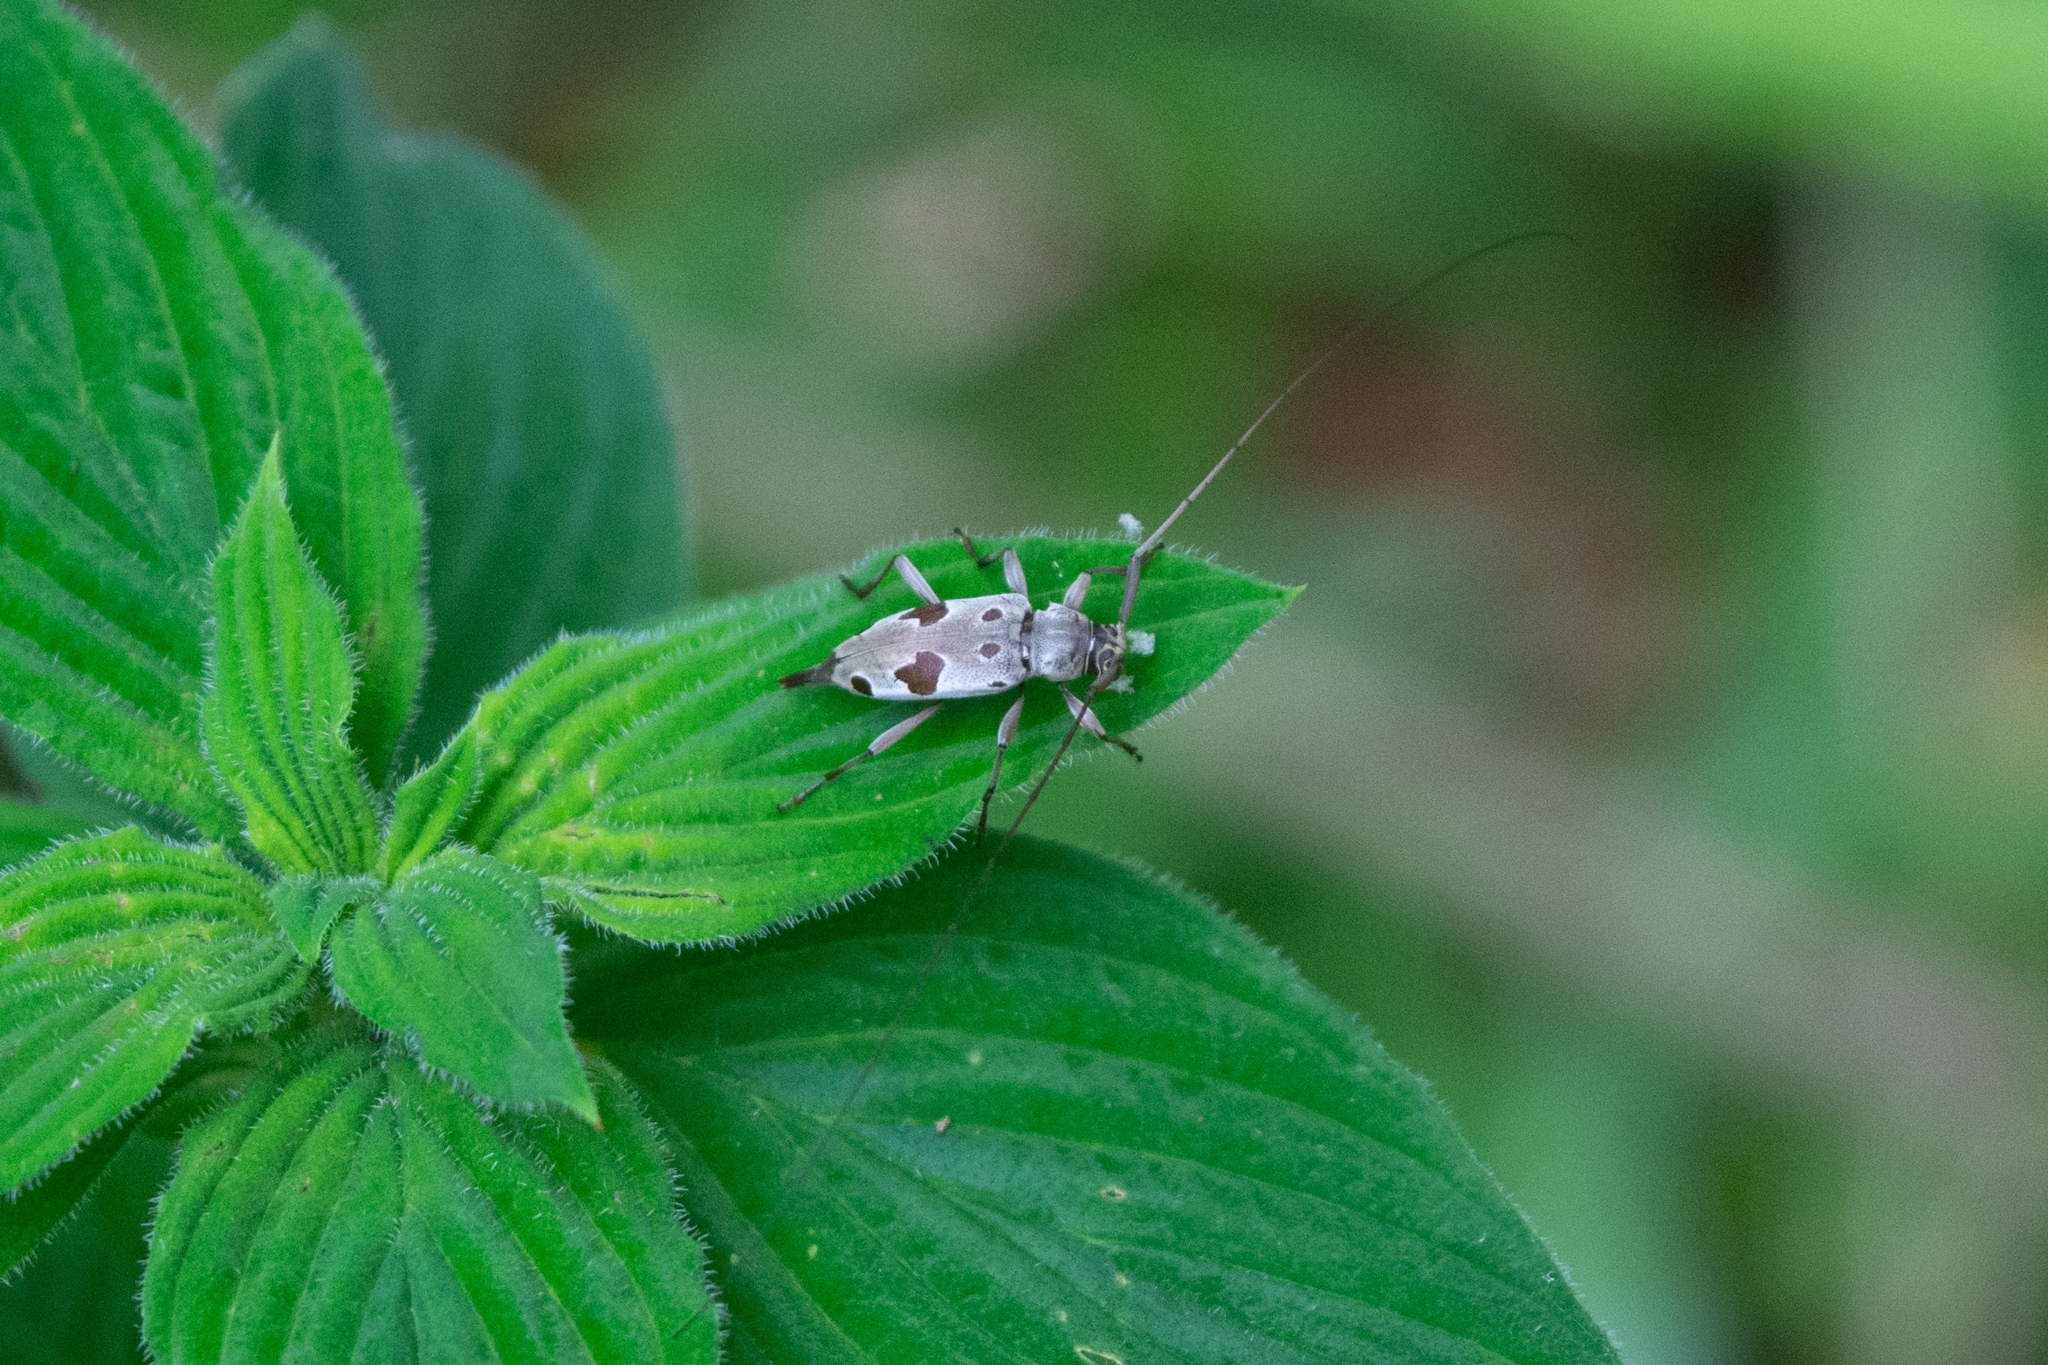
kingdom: Animalia
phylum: Arthropoda
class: Insecta
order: Coleoptera
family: Cerambycidae
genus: Eucharitolus
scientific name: Eucharitolus bellus
